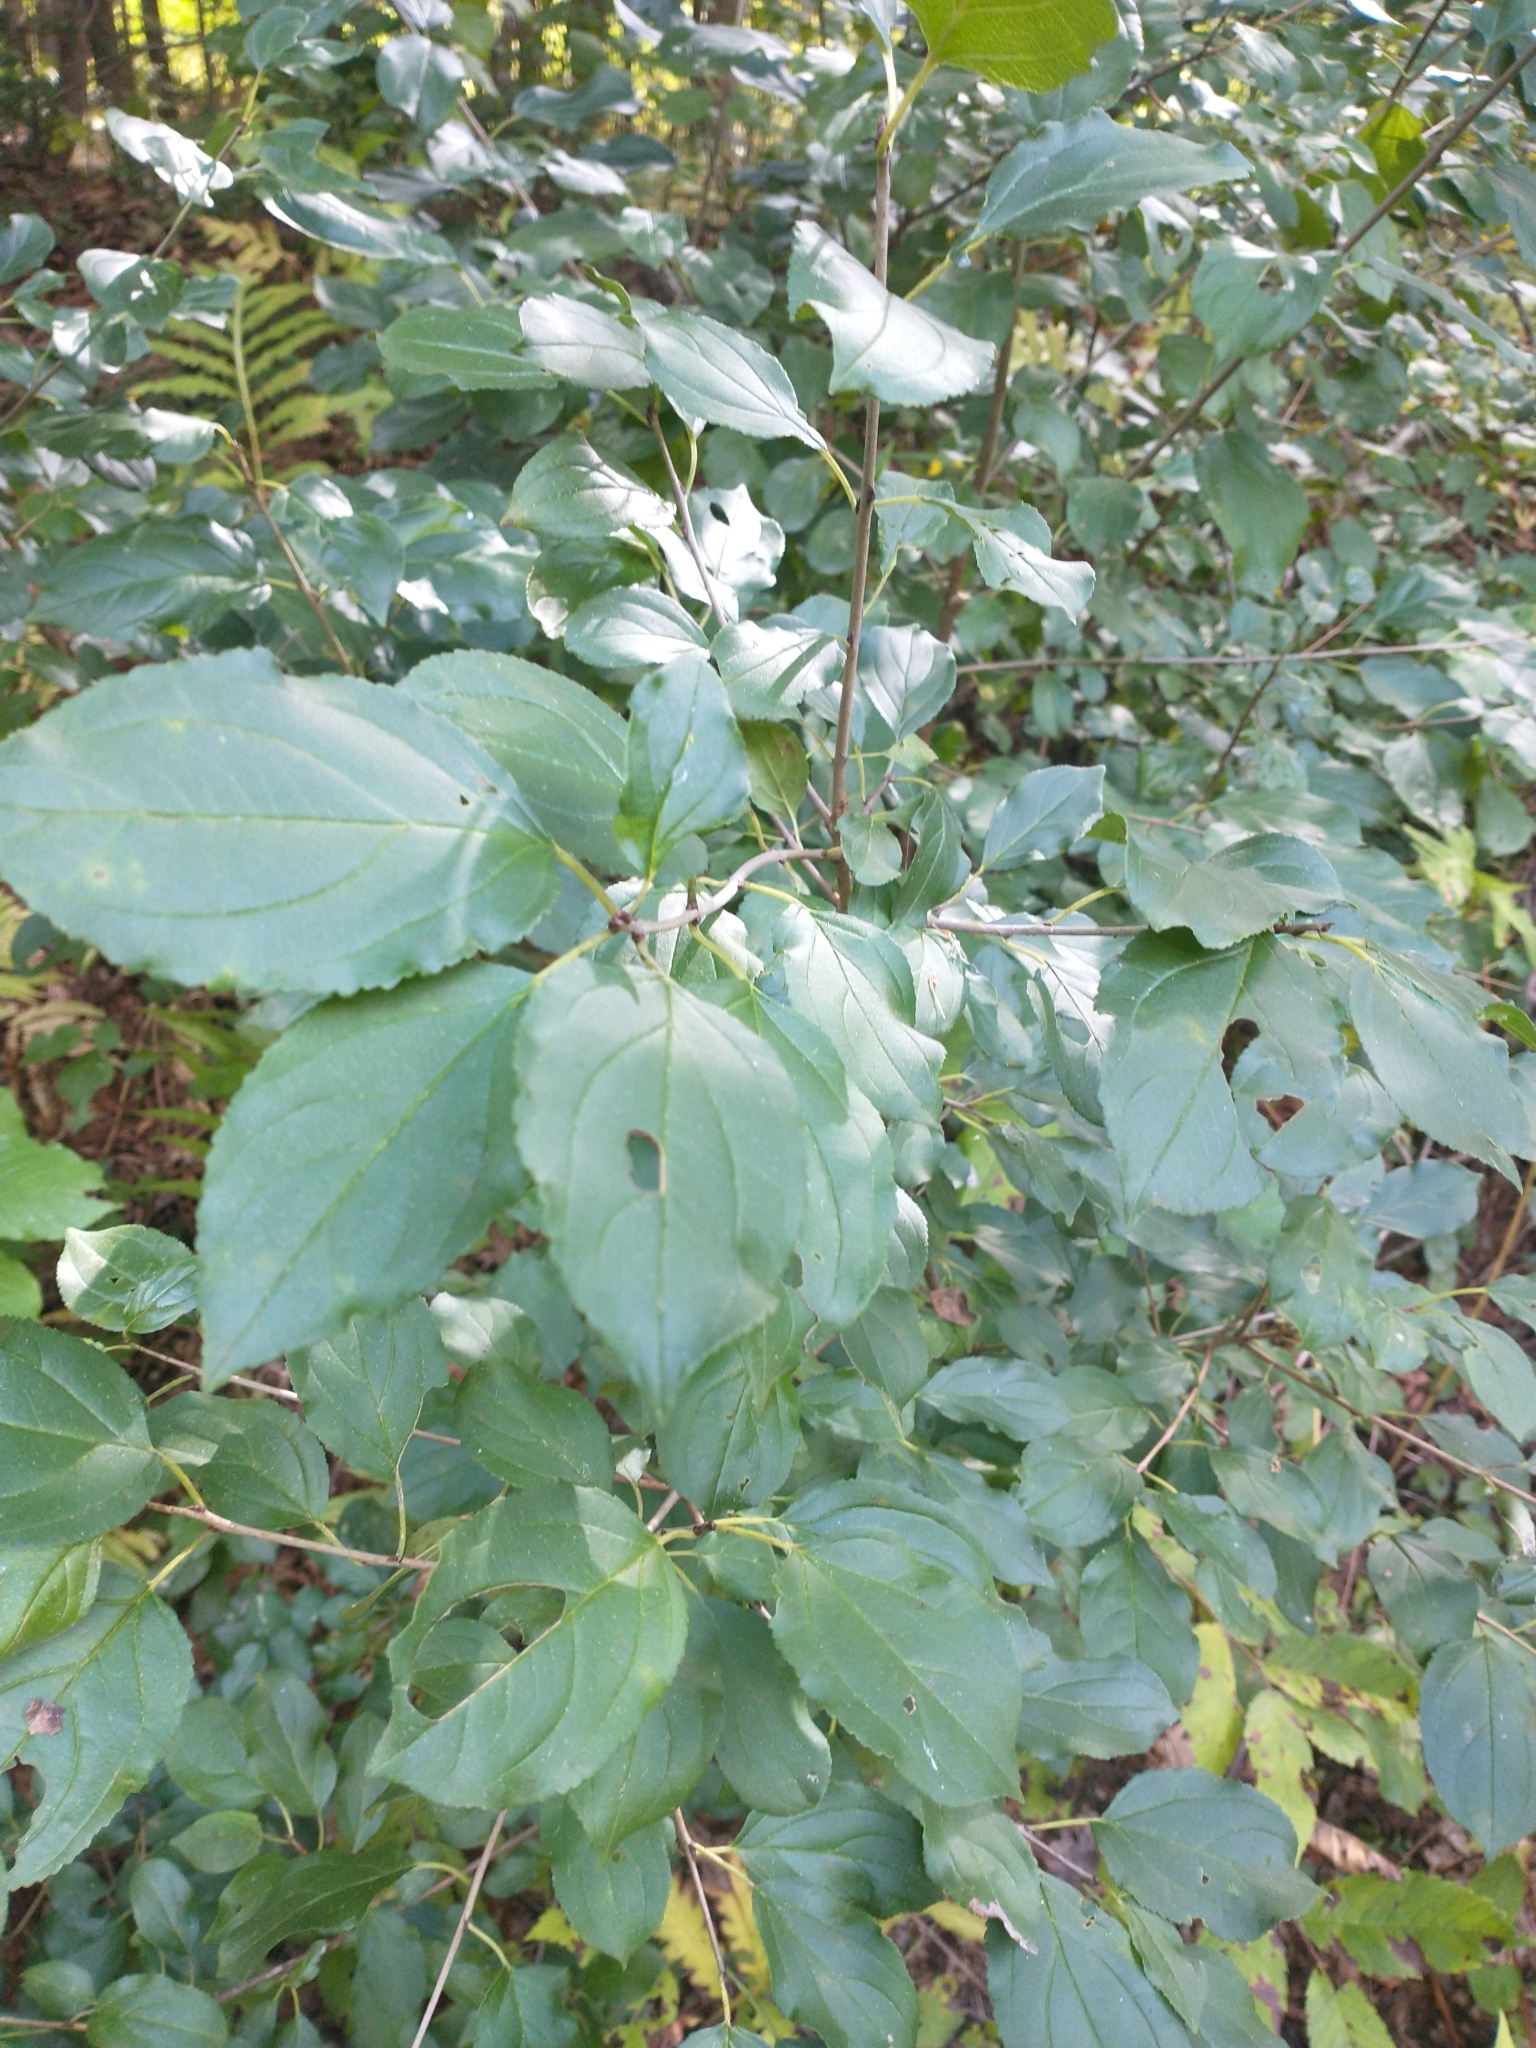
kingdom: Plantae
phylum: Tracheophyta
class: Magnoliopsida
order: Rosales
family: Rhamnaceae
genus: Rhamnus
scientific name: Rhamnus cathartica
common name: Common buckthorn
